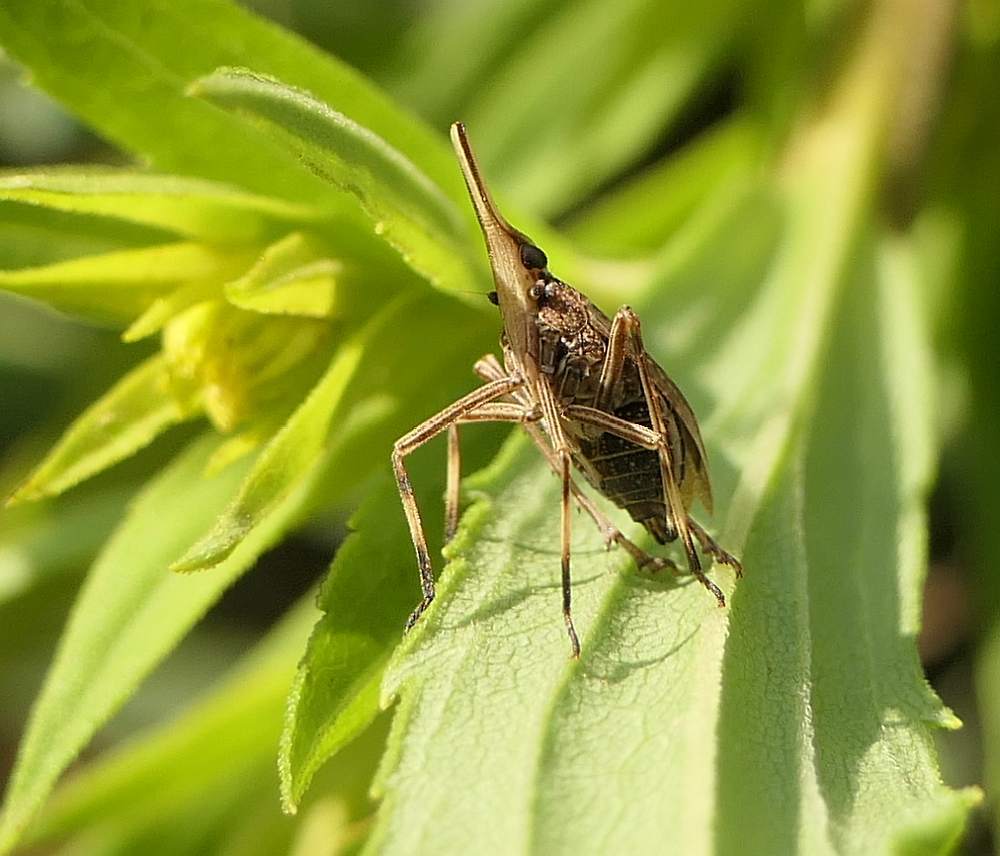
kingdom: Animalia
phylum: Arthropoda
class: Insecta
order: Hemiptera
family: Dictyopharidae
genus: Scolops
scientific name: Scolops sulcipes
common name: Partridge planthopper
